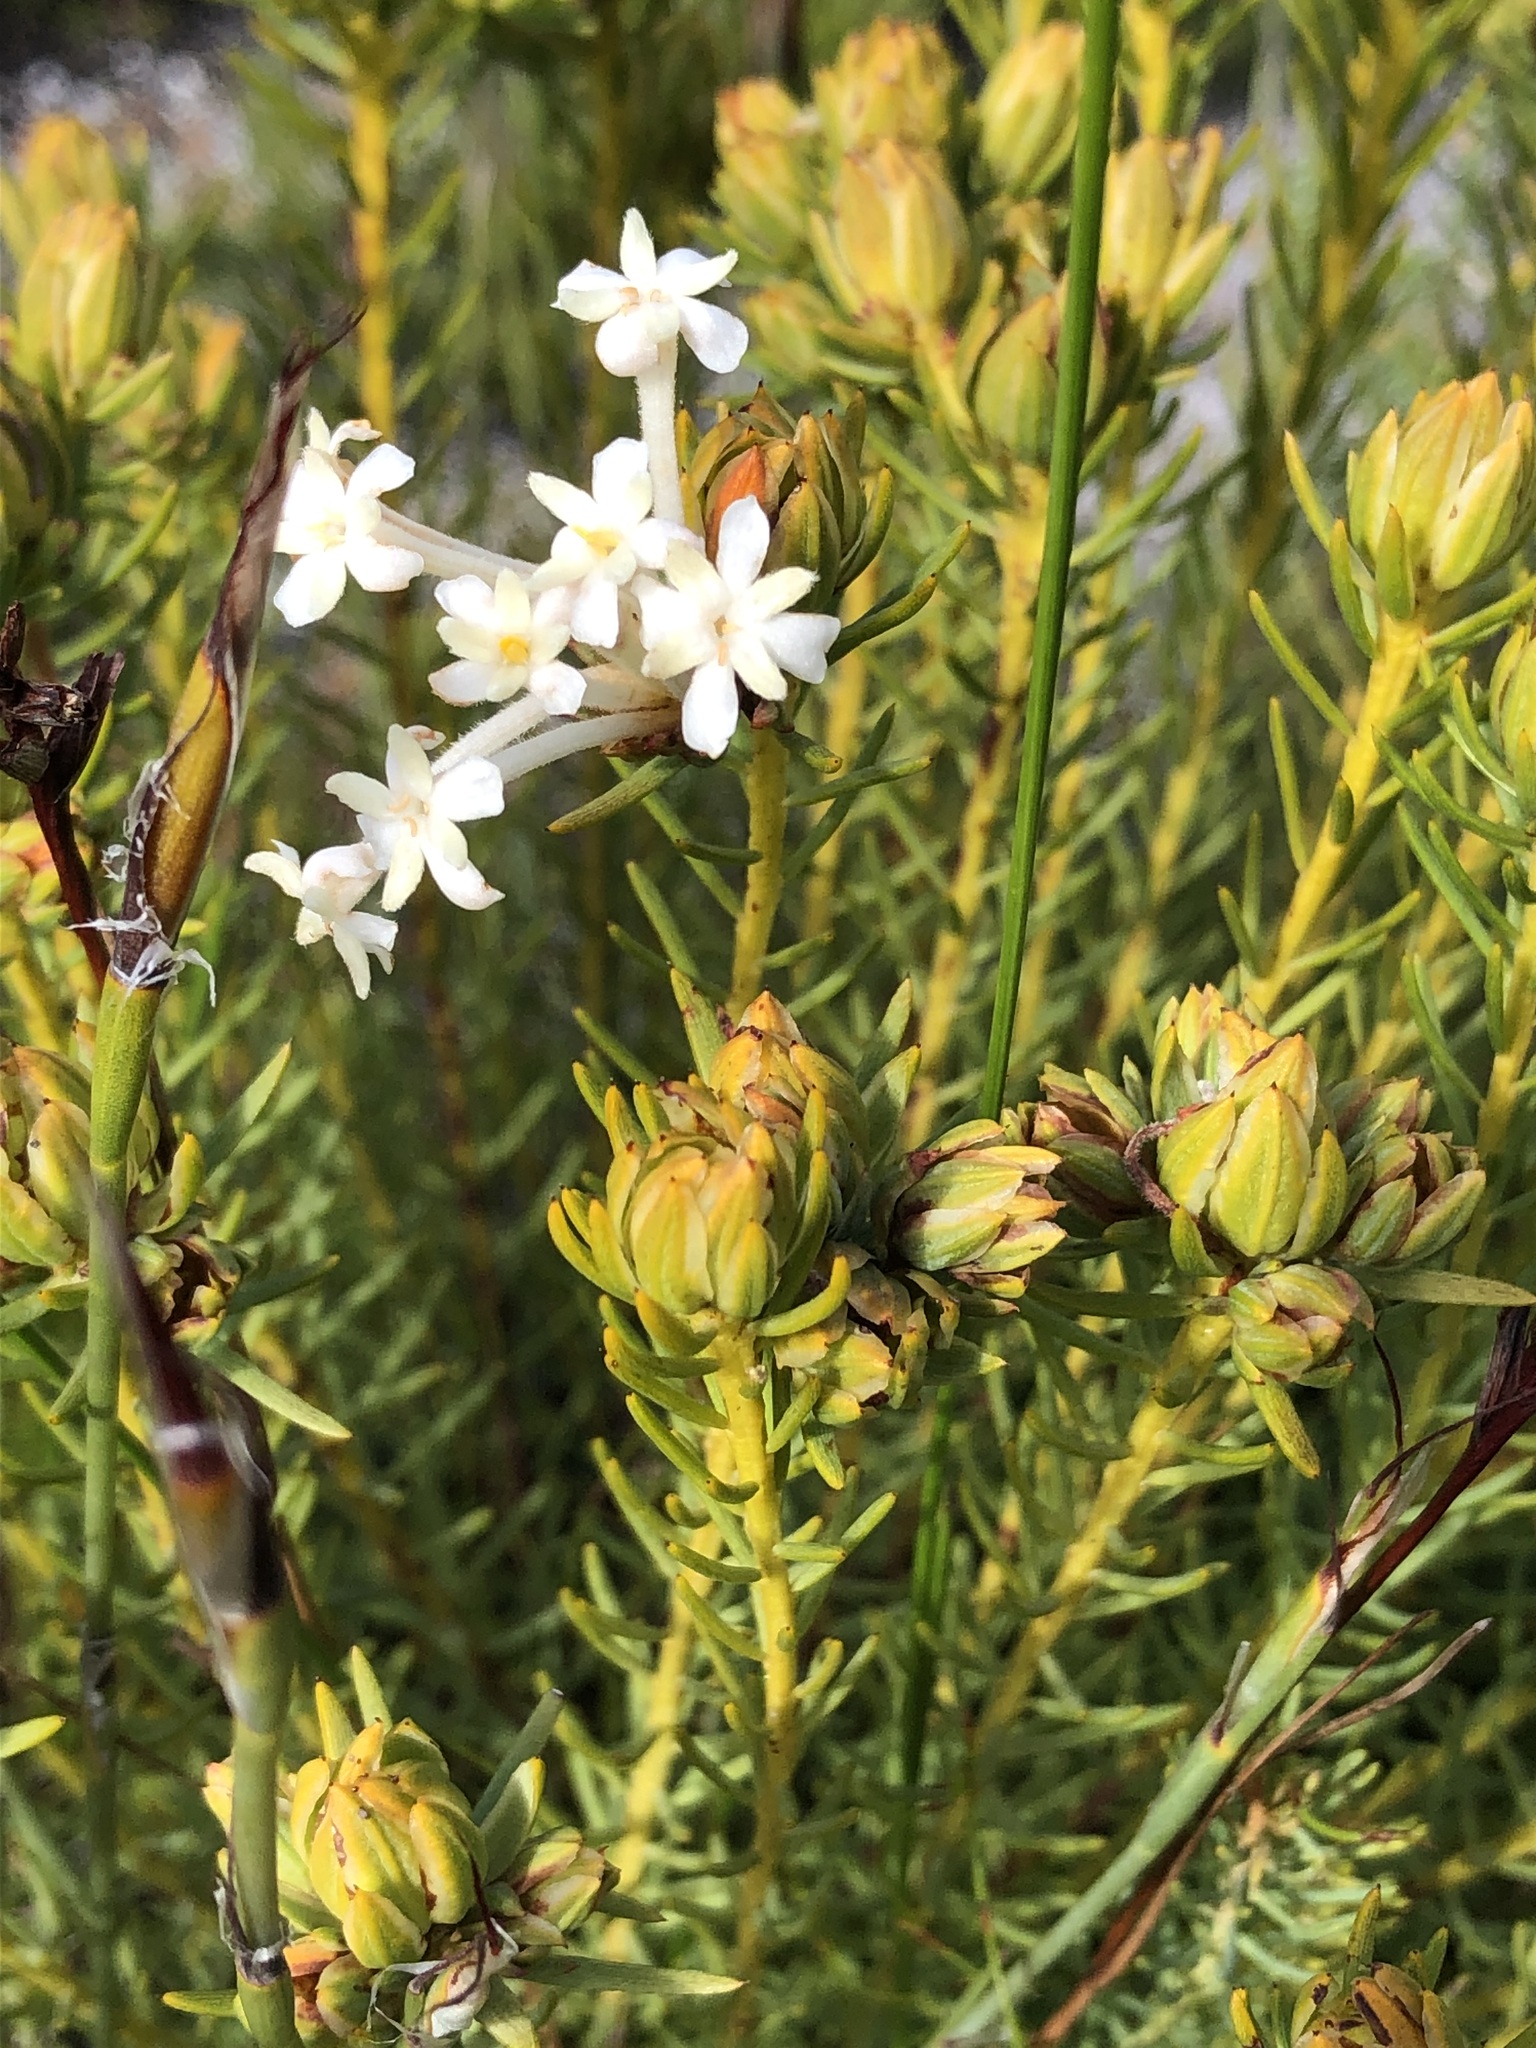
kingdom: Plantae
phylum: Tracheophyta
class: Magnoliopsida
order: Malvales
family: Thymelaeaceae
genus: Gnidia
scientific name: Gnidia pinifolia
